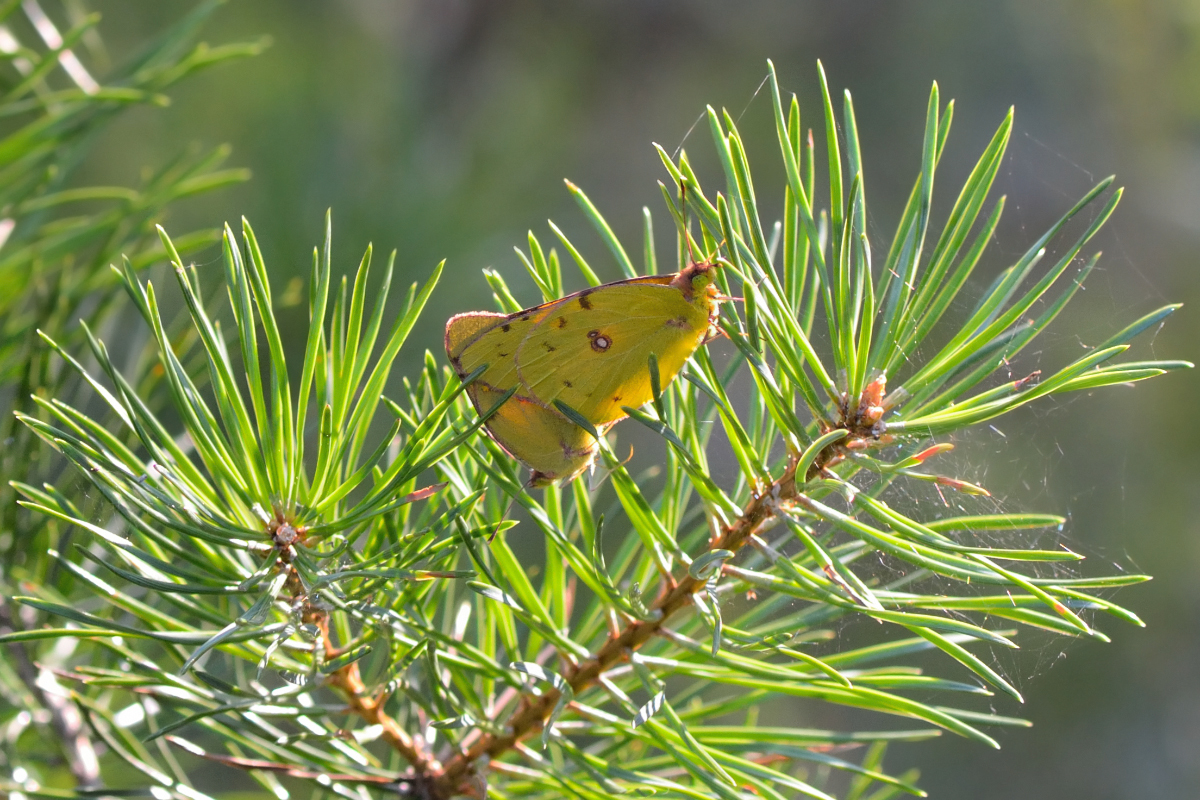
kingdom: Animalia
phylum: Arthropoda
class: Insecta
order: Lepidoptera
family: Pieridae
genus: Colias
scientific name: Colias myrmidone
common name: Danube clouded yellow
